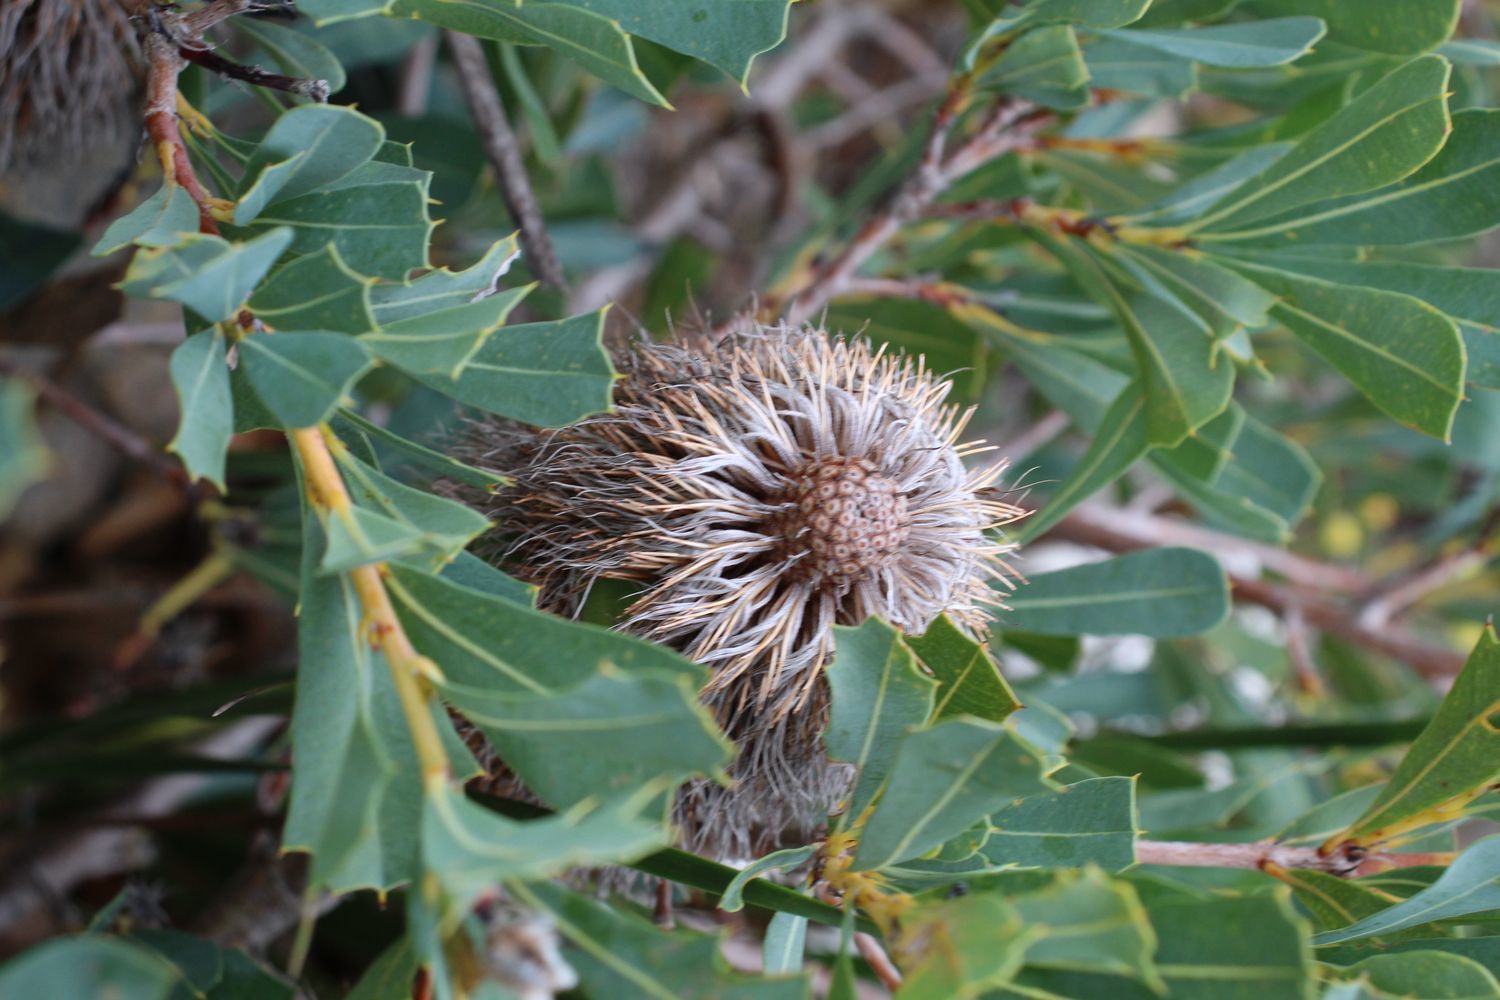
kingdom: Plantae
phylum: Tracheophyta
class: Magnoliopsida
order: Proteales
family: Proteaceae
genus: Banksia
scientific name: Banksia oreophila
